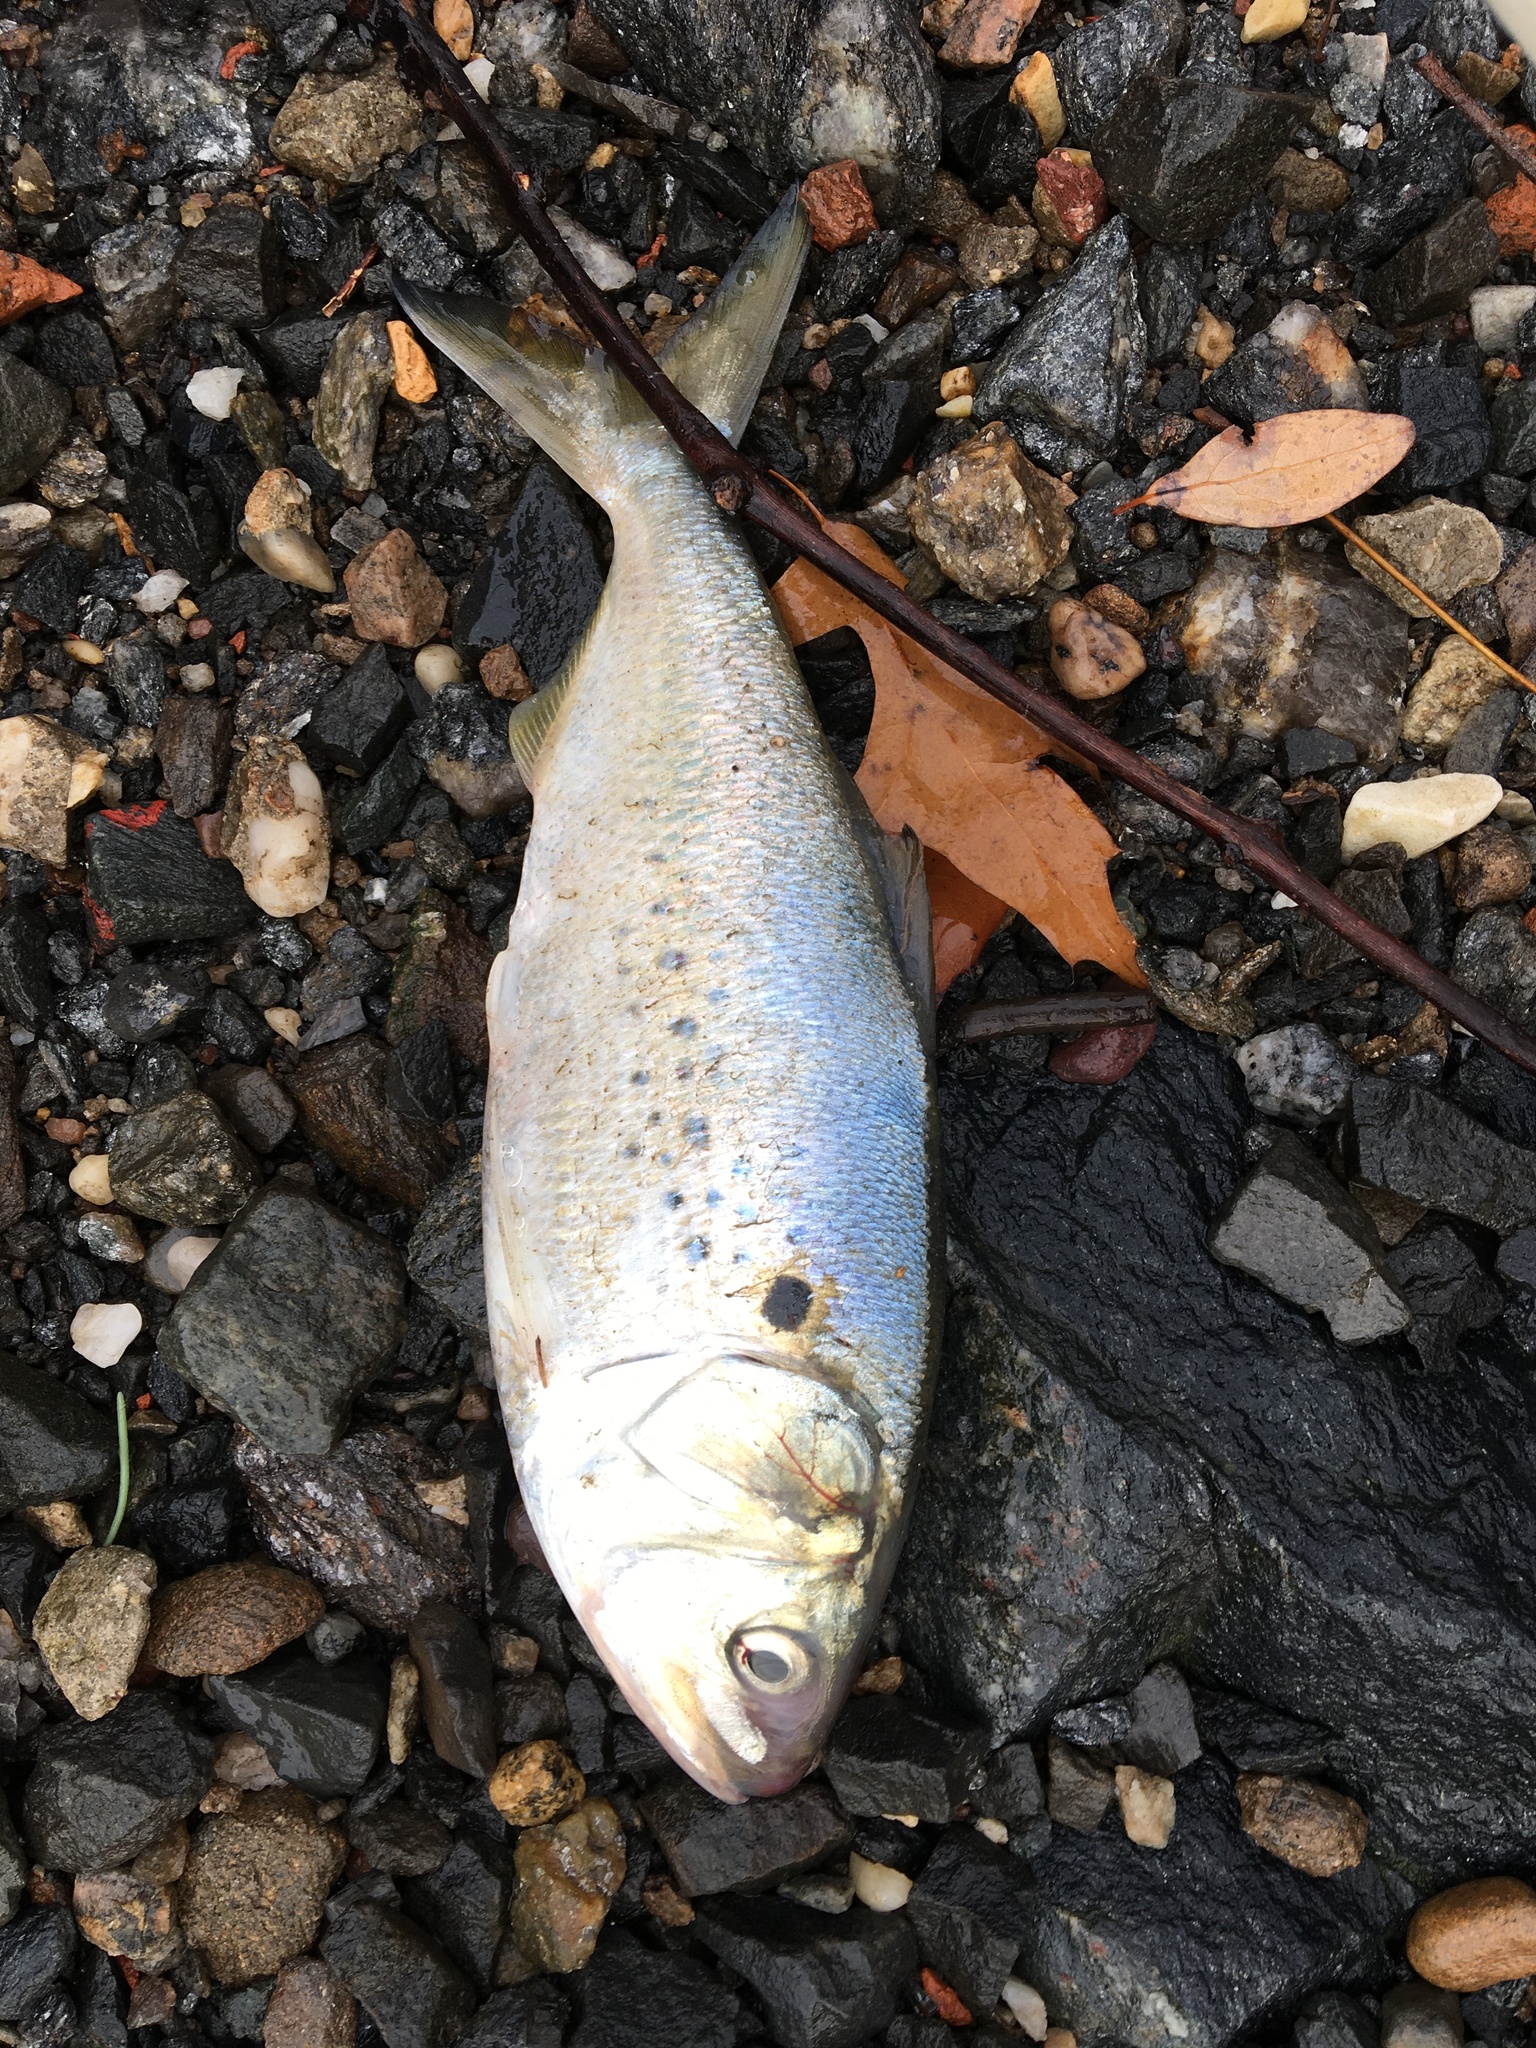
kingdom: Animalia
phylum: Chordata
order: Clupeiformes
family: Clupeidae
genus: Brevoortia
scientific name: Brevoortia tyrannus
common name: Atlantic menhaden
